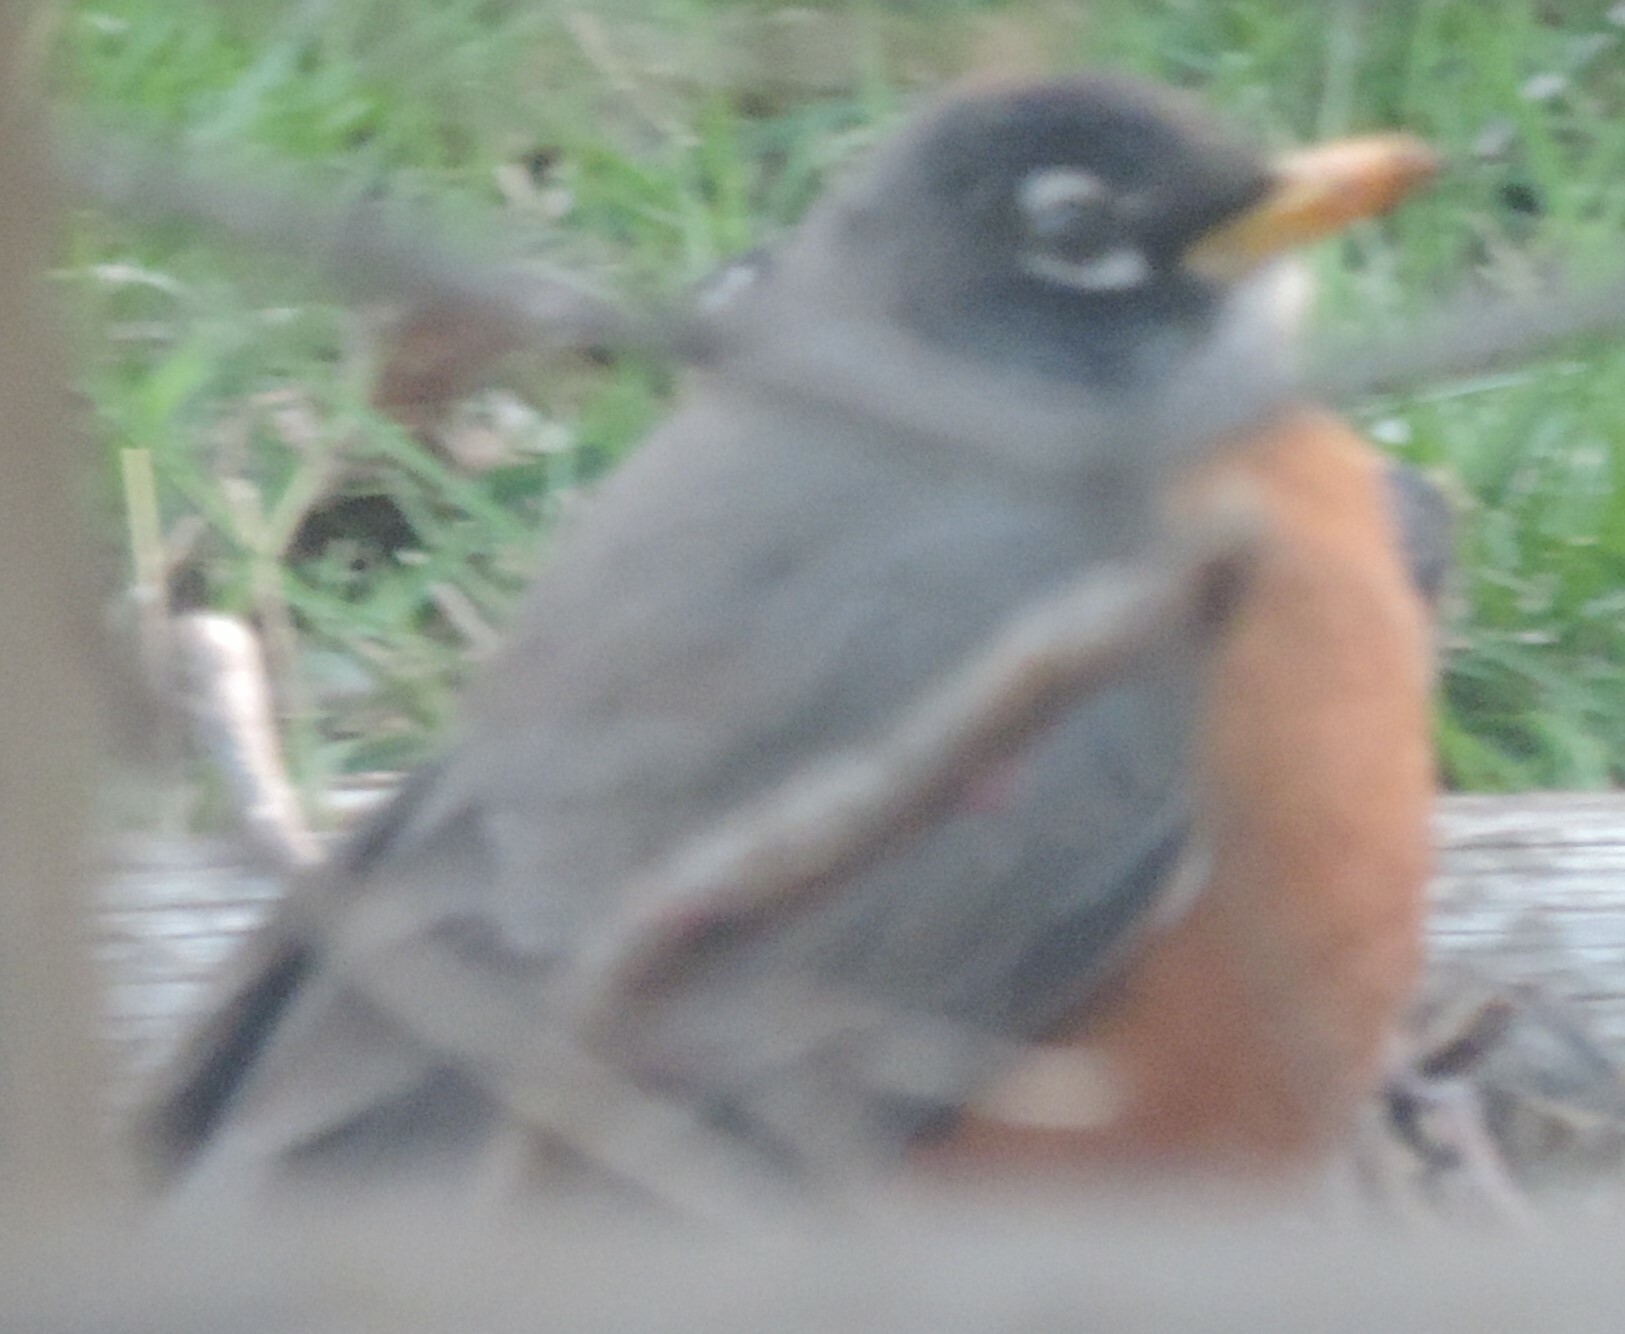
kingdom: Animalia
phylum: Chordata
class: Aves
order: Passeriformes
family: Turdidae
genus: Turdus
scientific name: Turdus migratorius
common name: American robin
